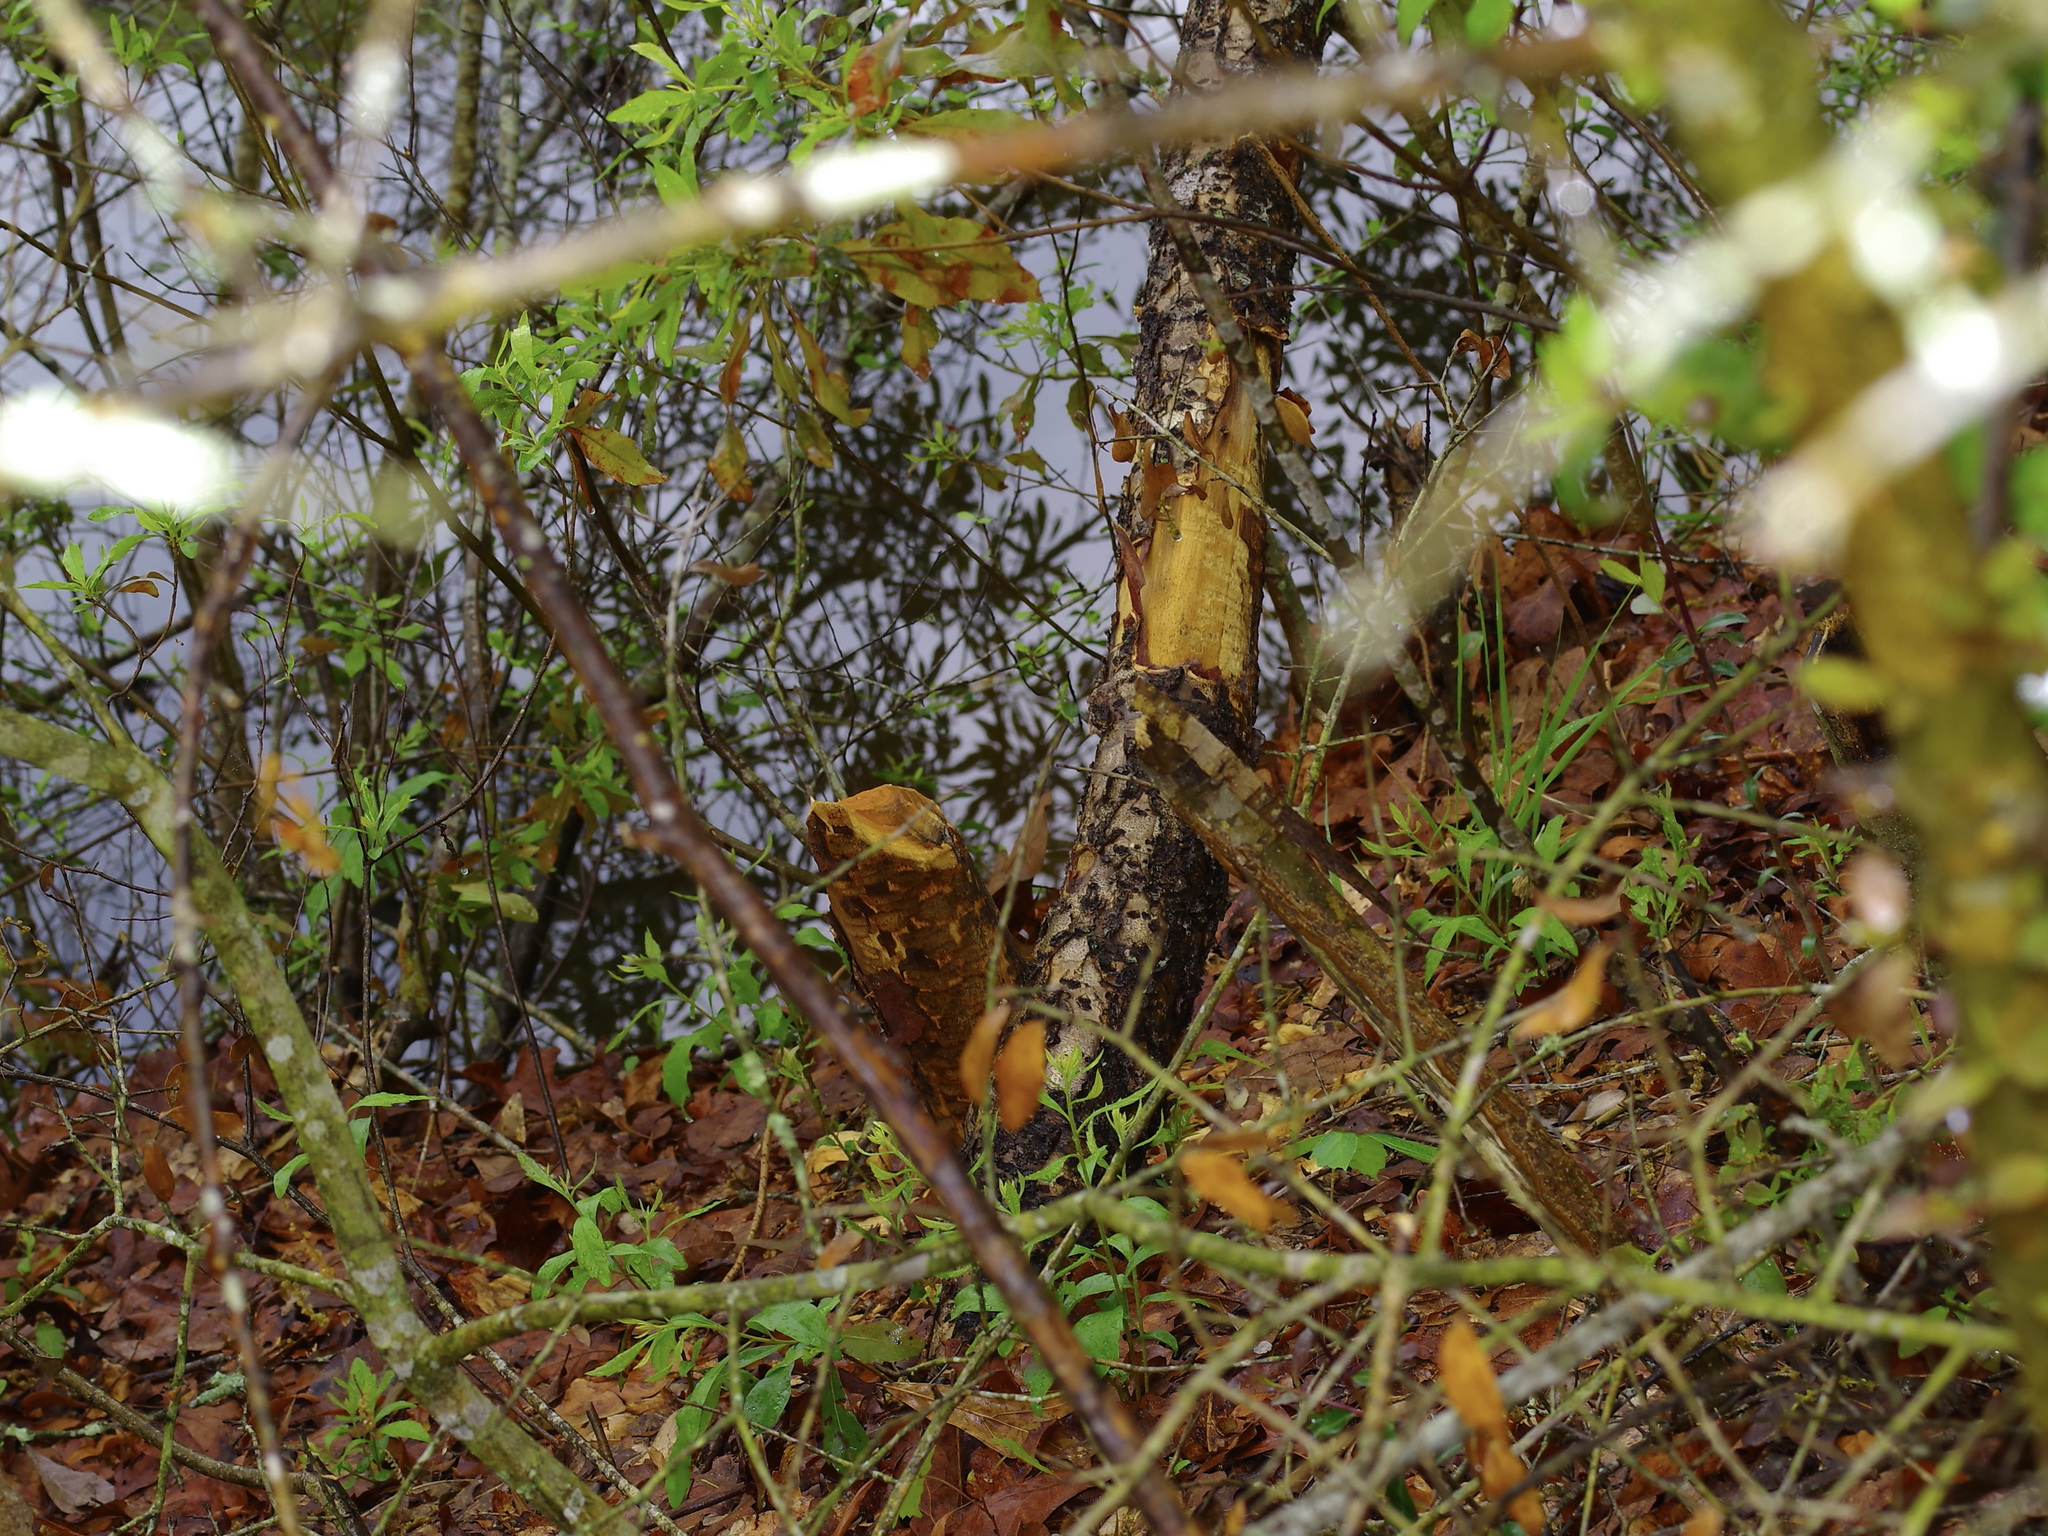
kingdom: Animalia
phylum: Chordata
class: Mammalia
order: Rodentia
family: Castoridae
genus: Castor
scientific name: Castor canadensis
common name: American beaver
